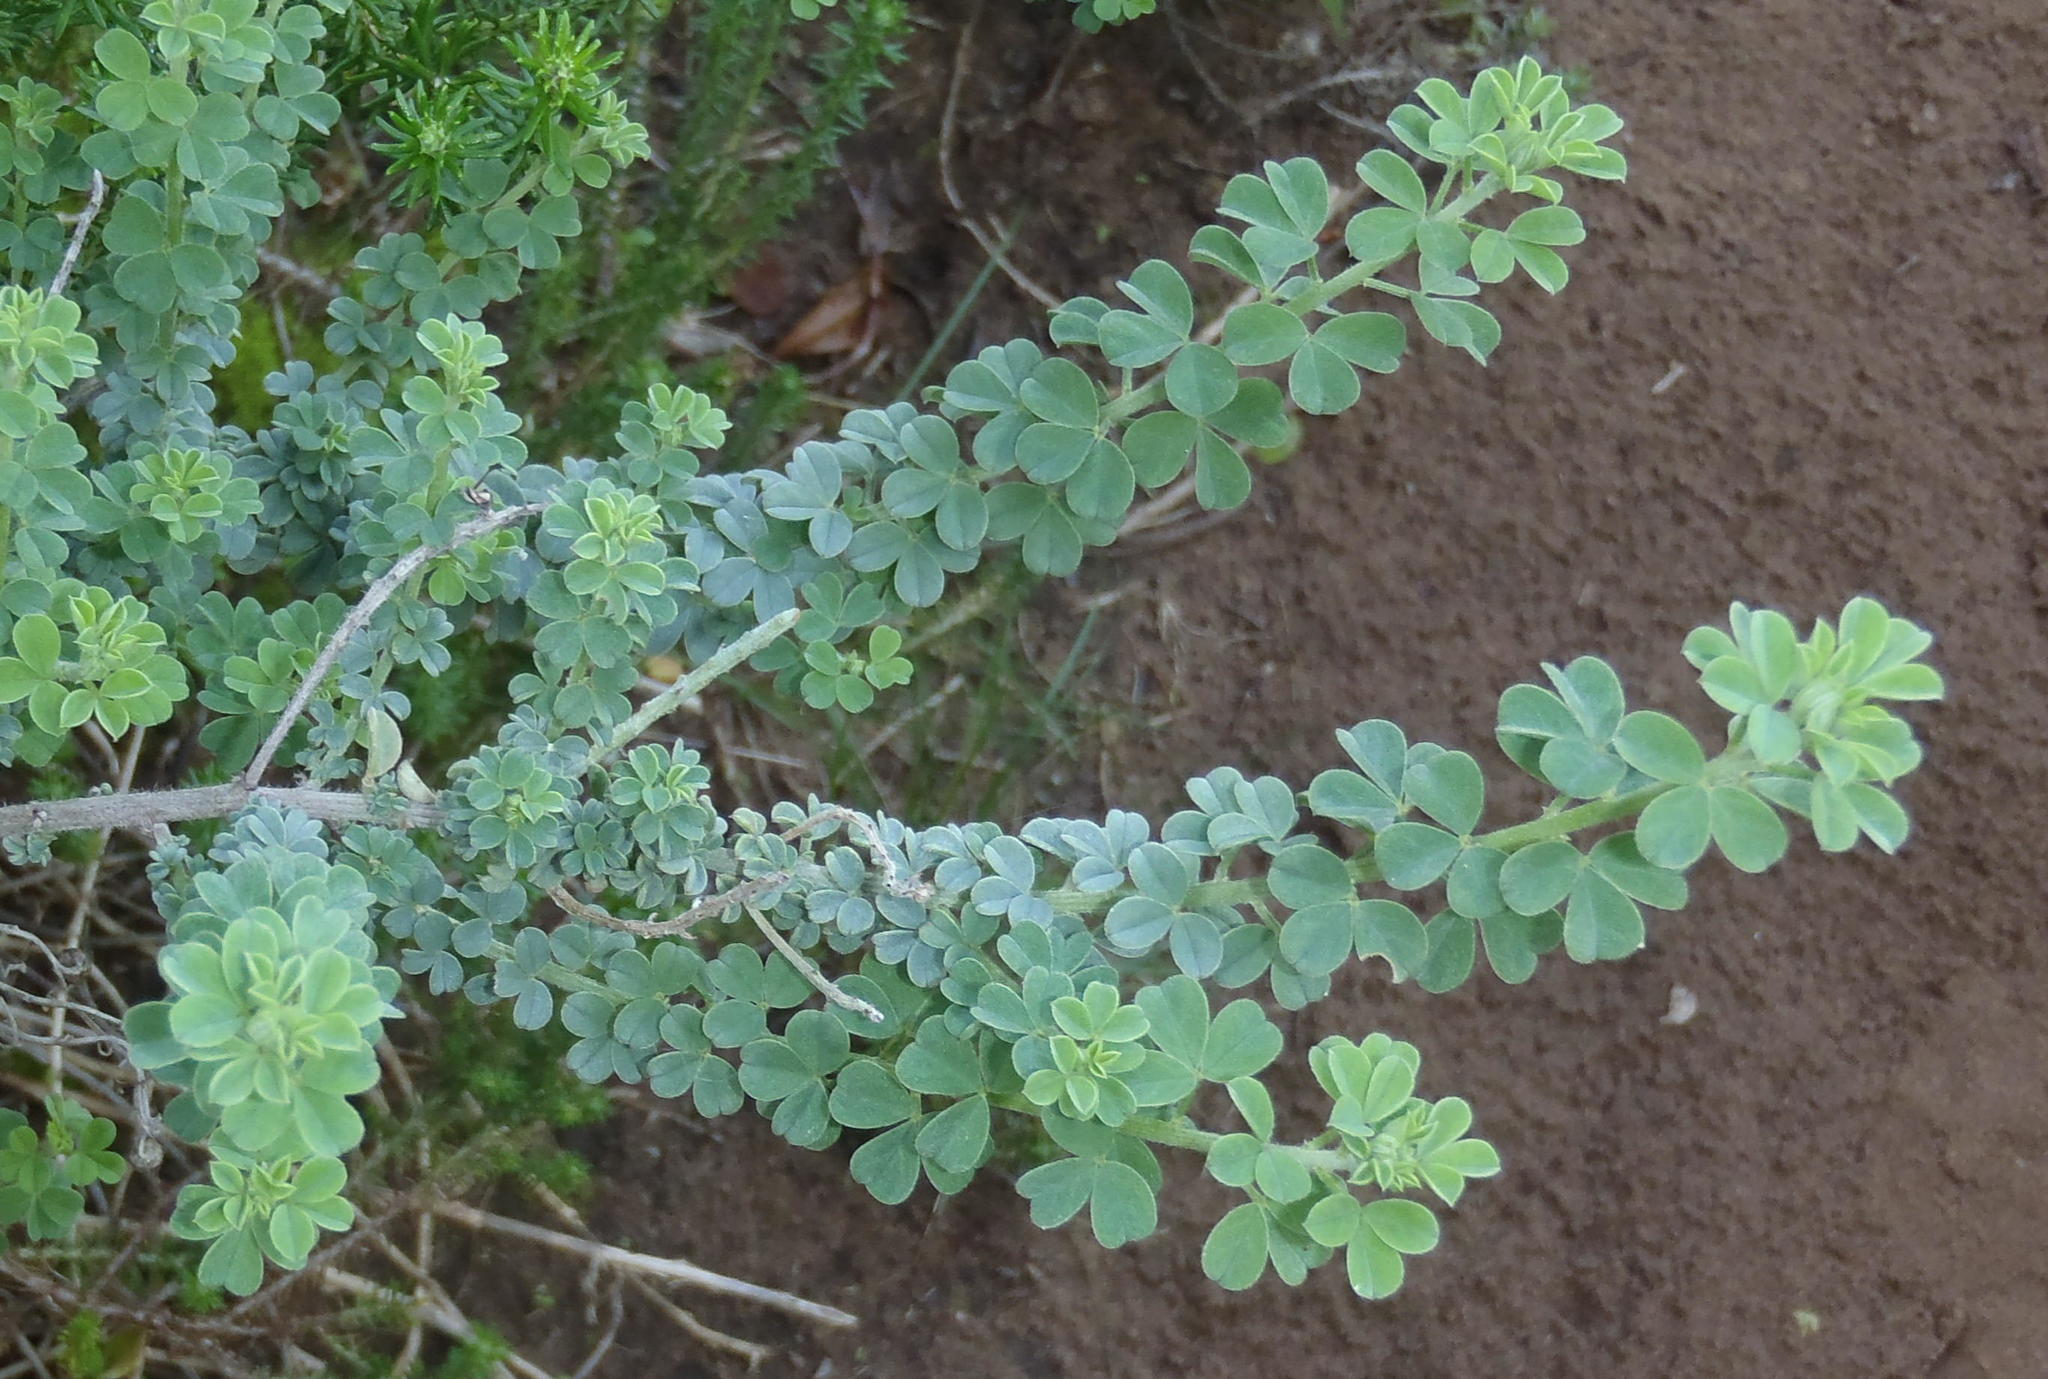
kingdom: Plantae
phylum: Tracheophyta
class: Magnoliopsida
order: Fabales
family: Fabaceae
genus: Indigofera
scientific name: Indigofera porrecta
